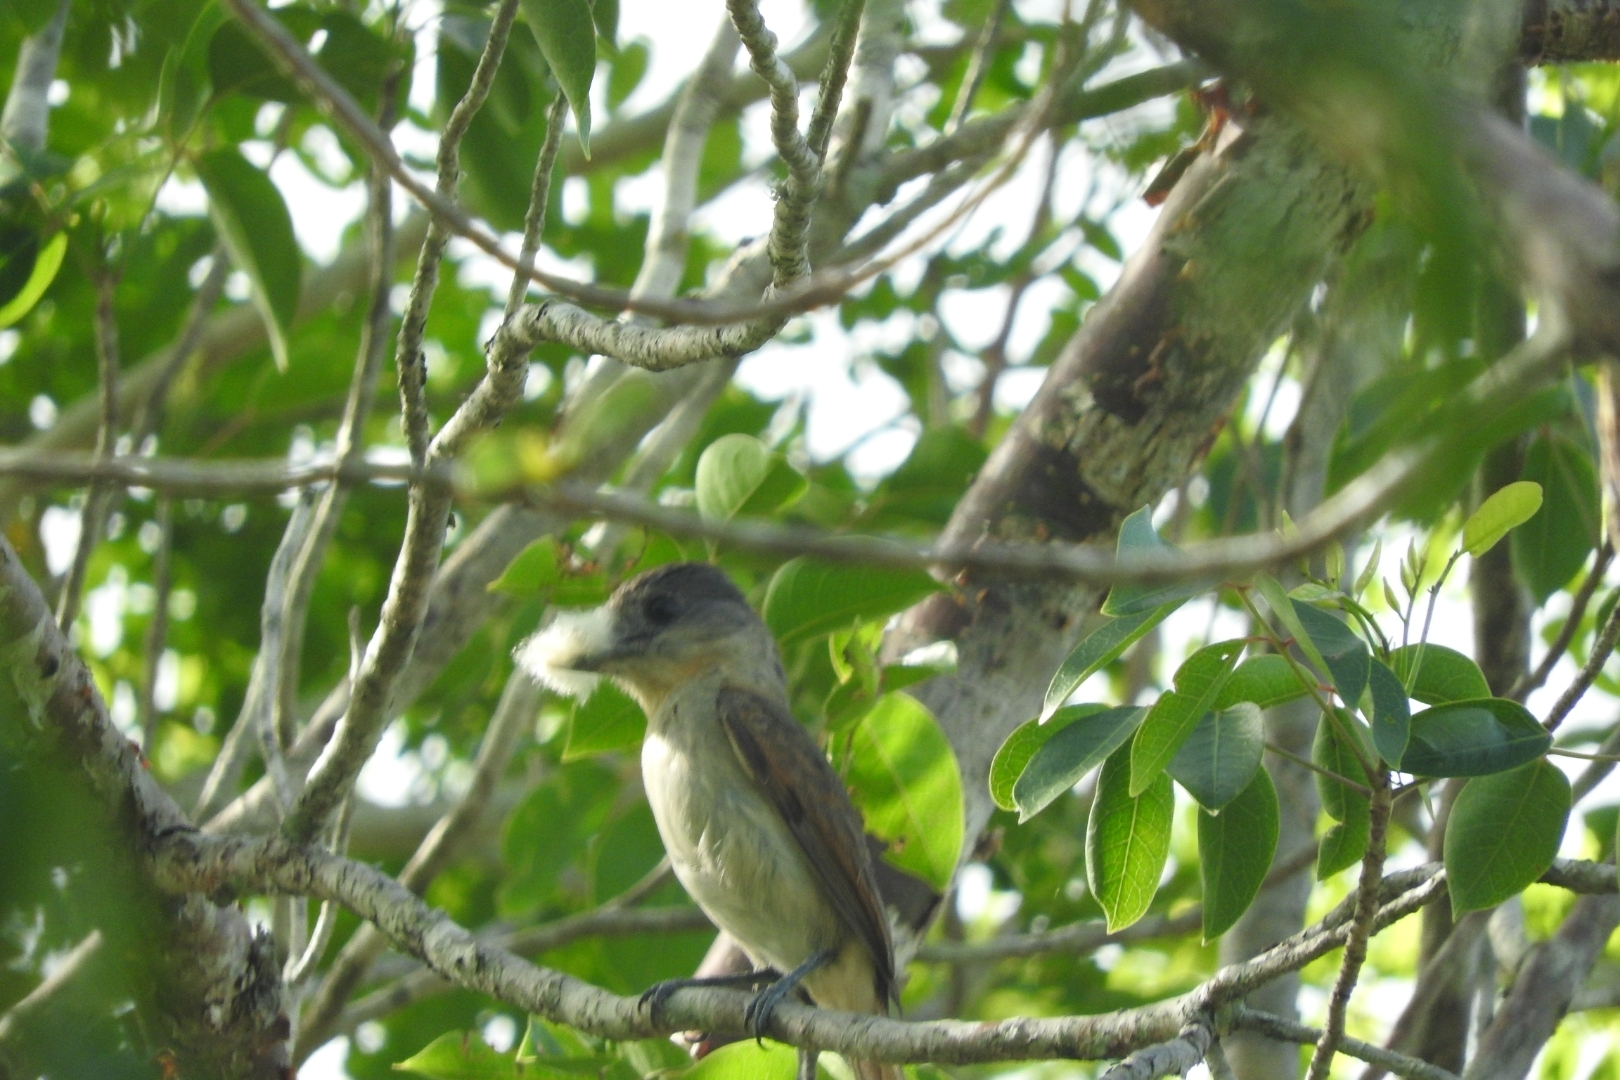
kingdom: Animalia
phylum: Chordata
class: Aves
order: Passeriformes
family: Cotingidae
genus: Pachyramphus
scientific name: Pachyramphus aglaiae
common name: Rose-throated becard
